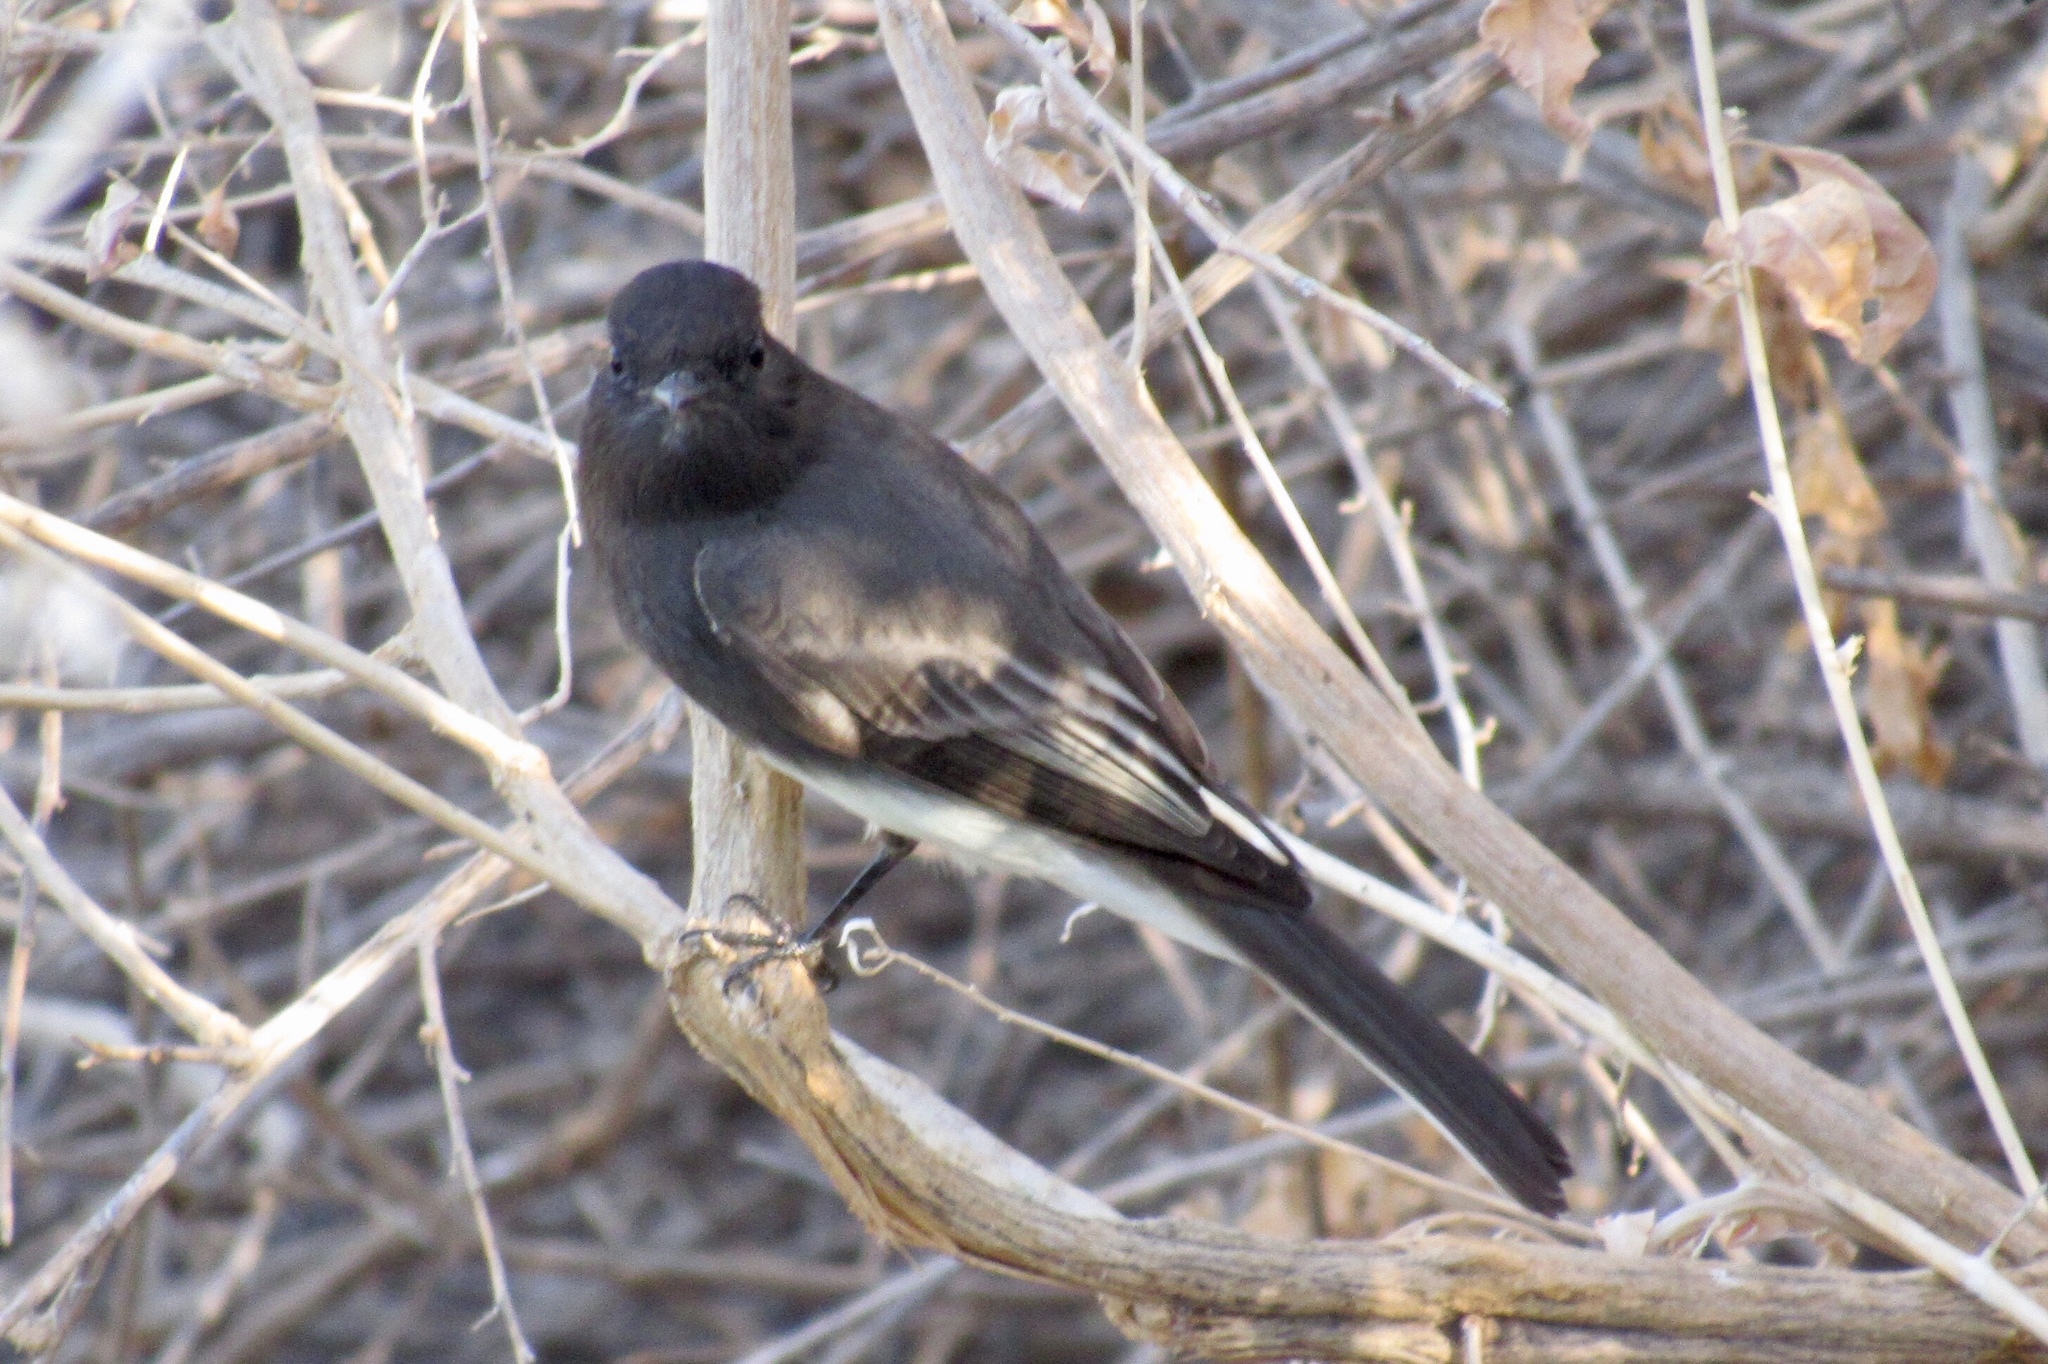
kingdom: Animalia
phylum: Chordata
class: Aves
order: Passeriformes
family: Tyrannidae
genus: Sayornis
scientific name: Sayornis nigricans
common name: Black phoebe
